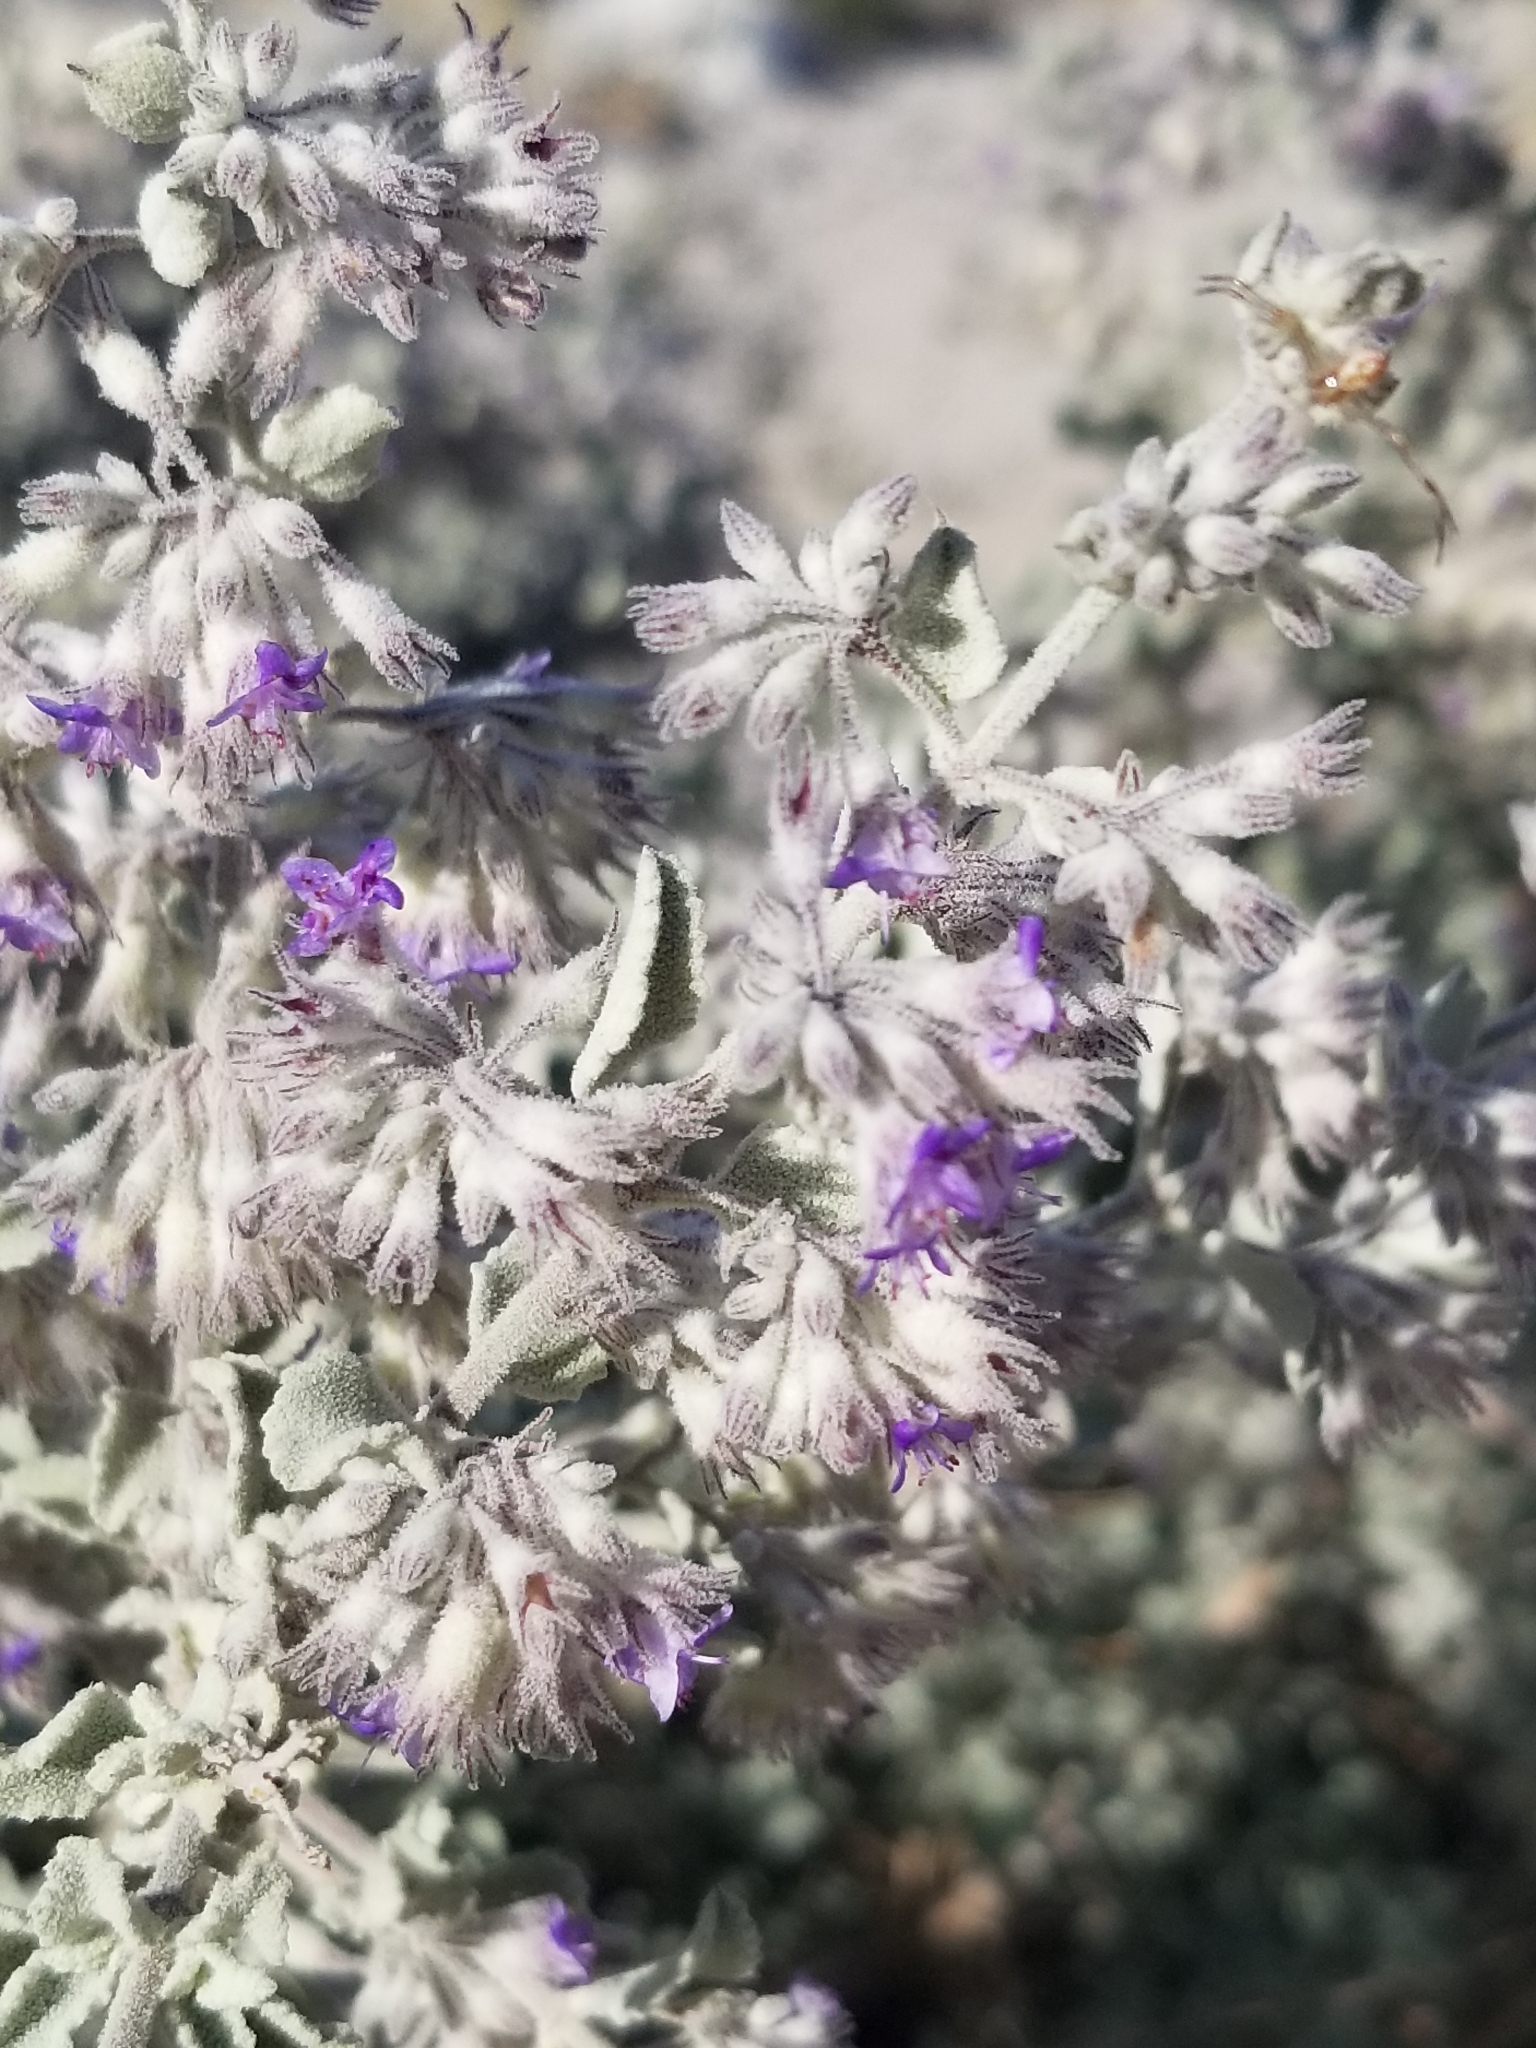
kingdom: Plantae
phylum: Tracheophyta
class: Magnoliopsida
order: Lamiales
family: Lamiaceae
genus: Condea
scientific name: Condea emoryi
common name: Chia
